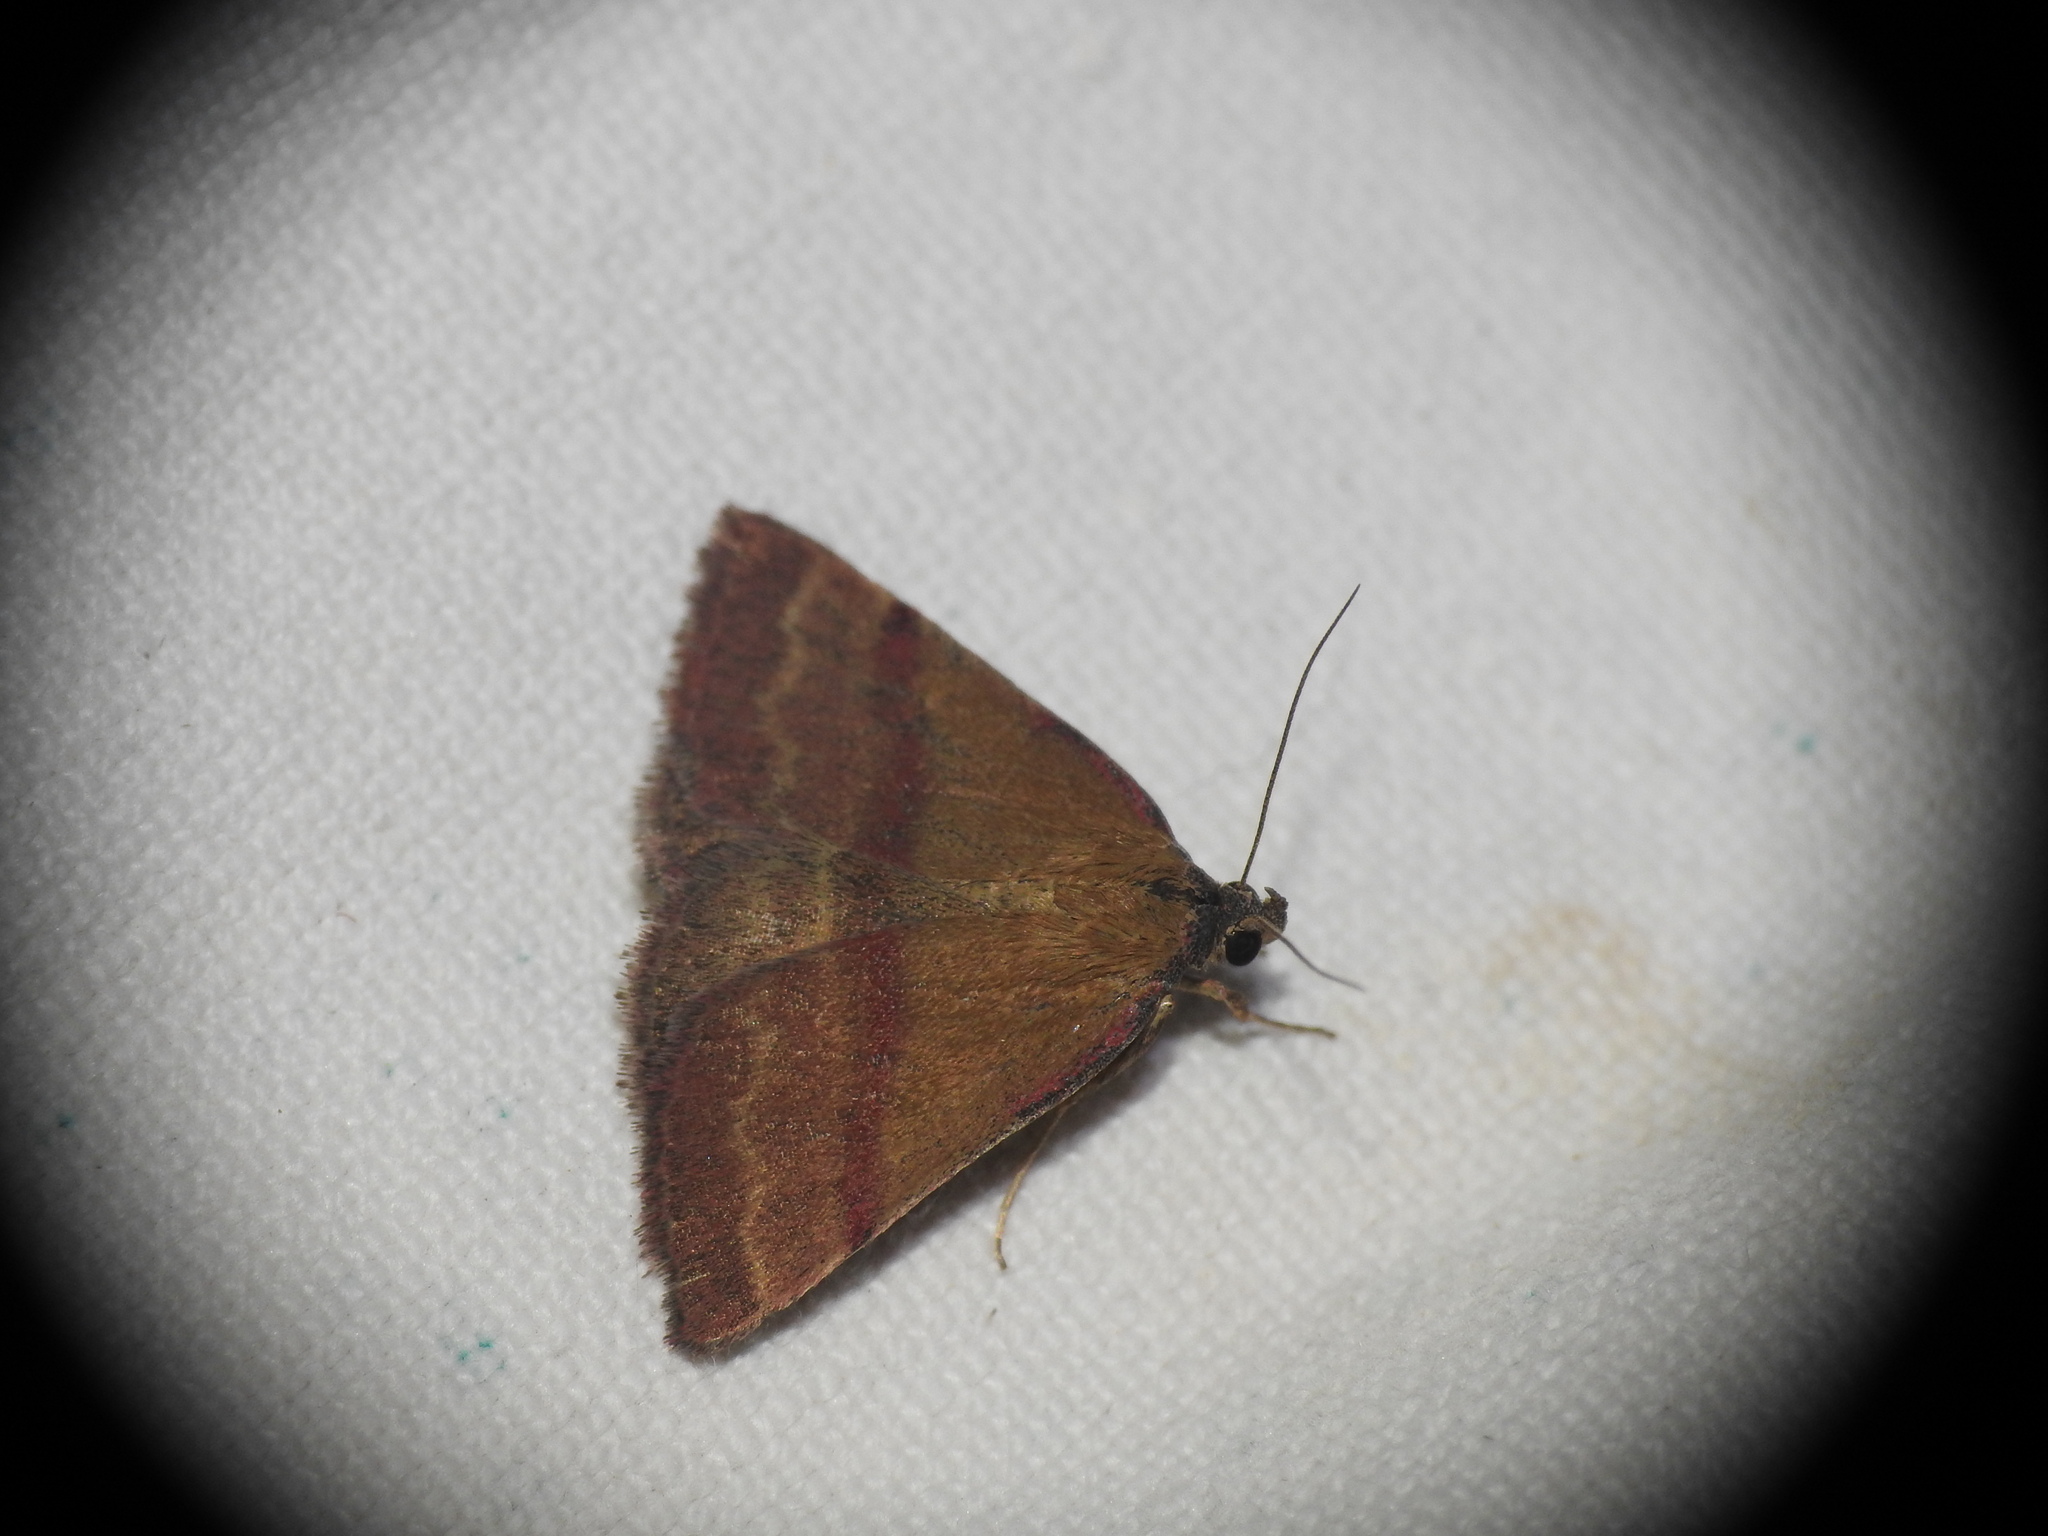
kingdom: Animalia
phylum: Arthropoda
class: Insecta
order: Lepidoptera
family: Erebidae
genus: Phytometra
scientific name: Phytometra viridaria
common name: Small purple-barred
